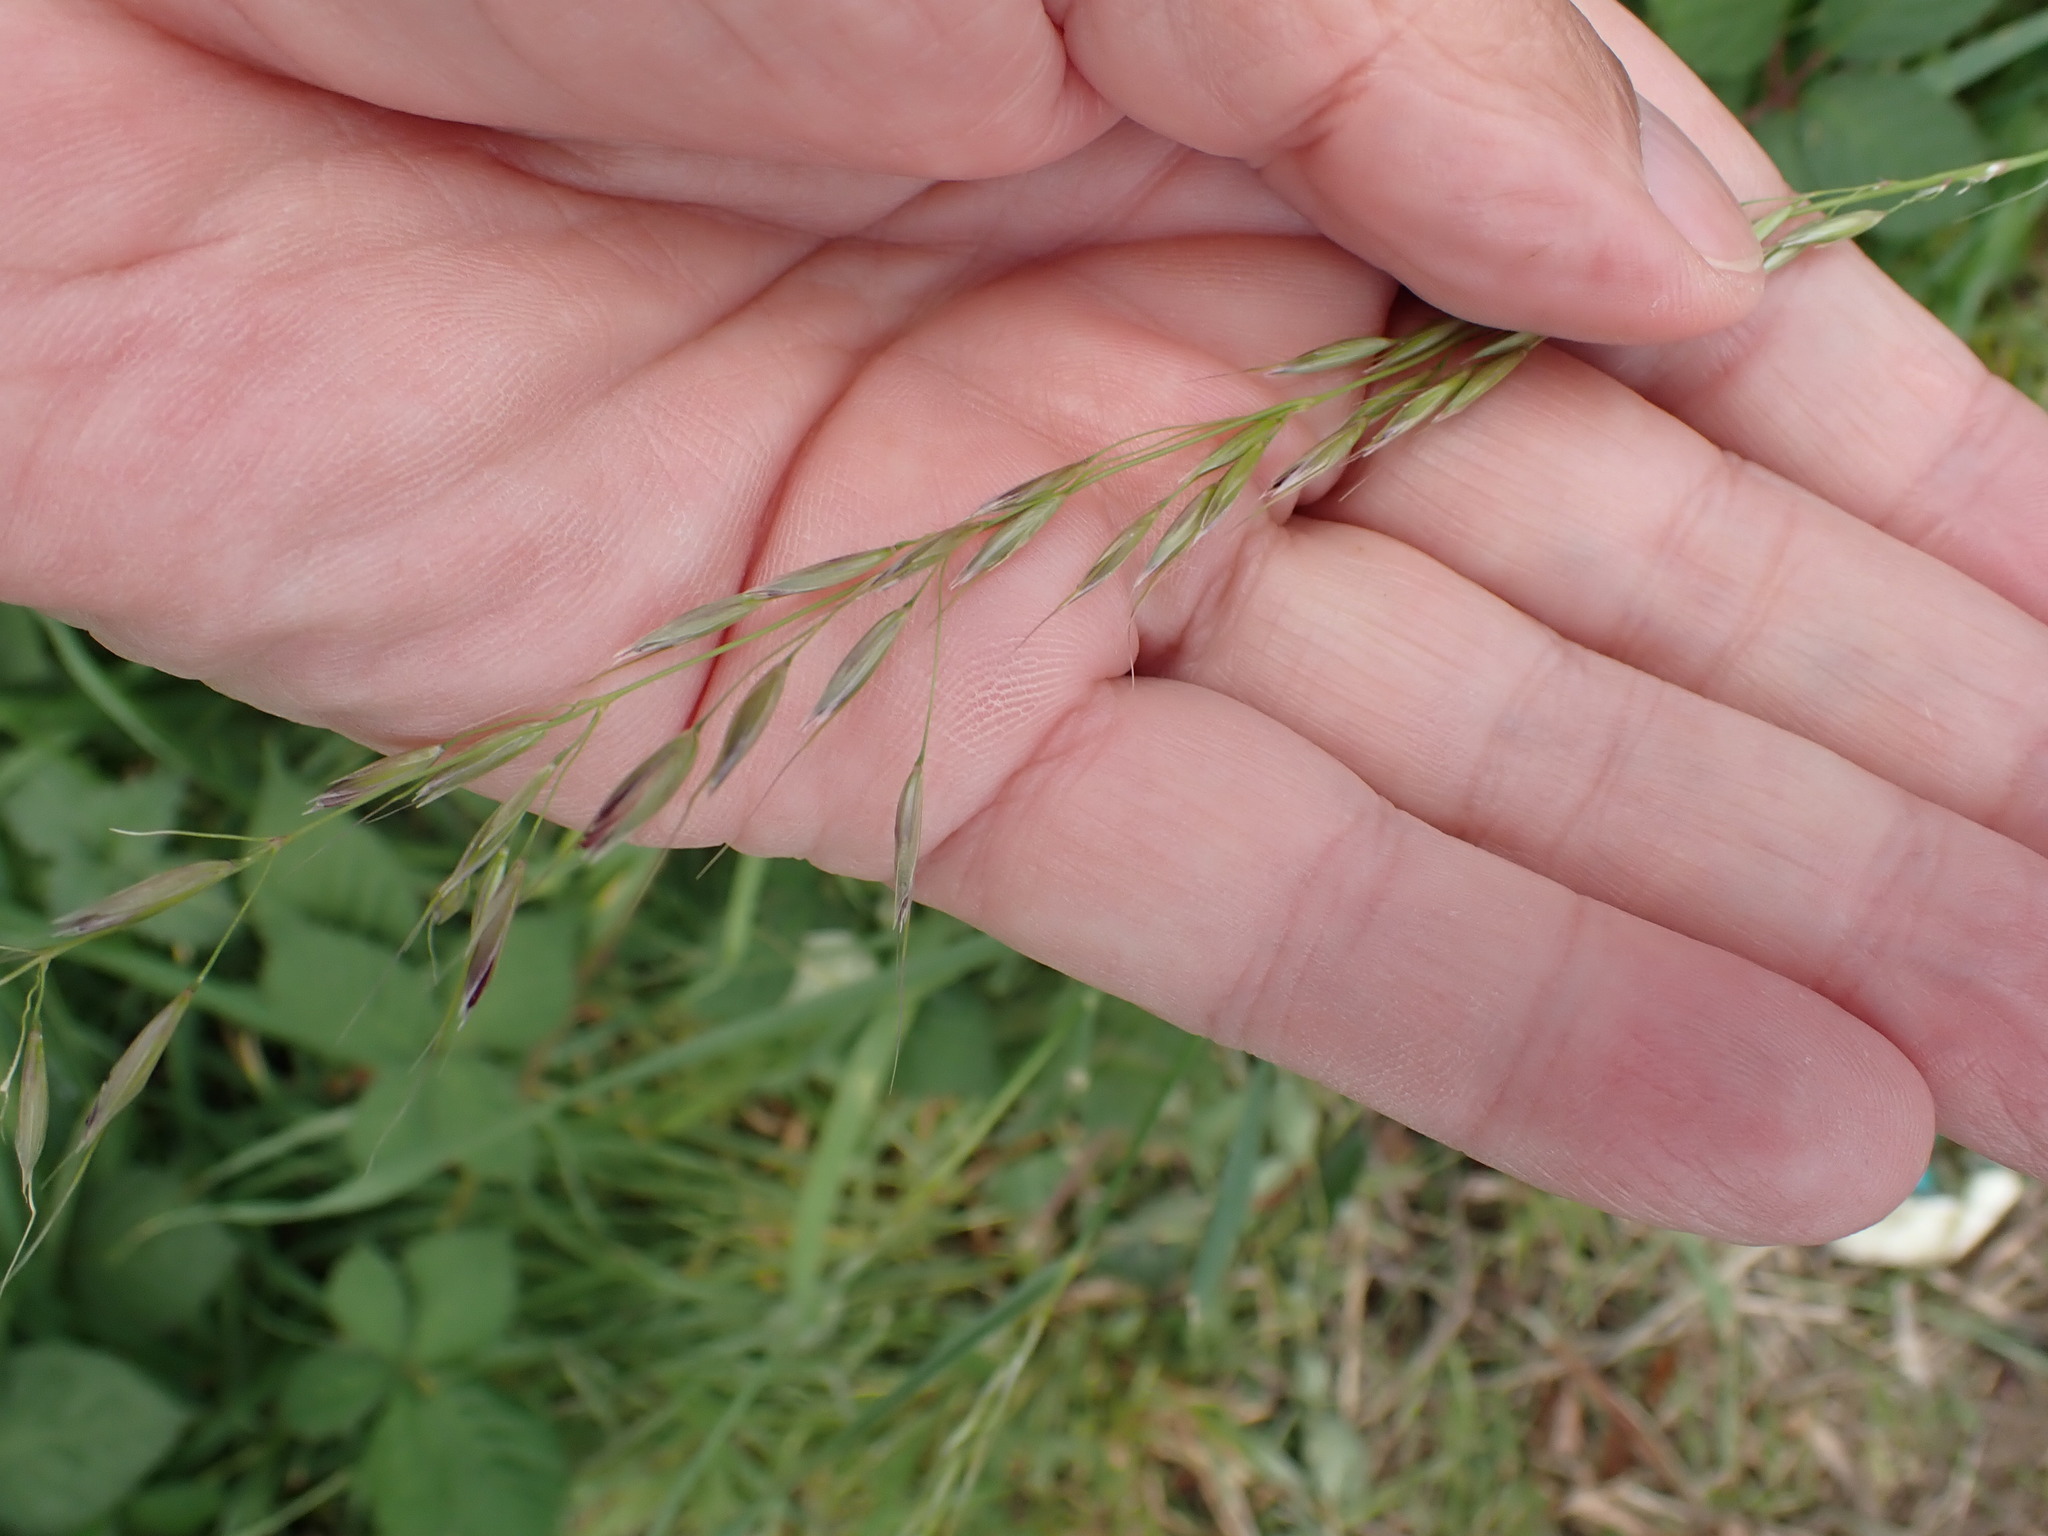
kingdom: Plantae
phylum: Tracheophyta
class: Liliopsida
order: Poales
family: Poaceae
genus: Arrhenatherum
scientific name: Arrhenatherum elatius
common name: Tall oatgrass
